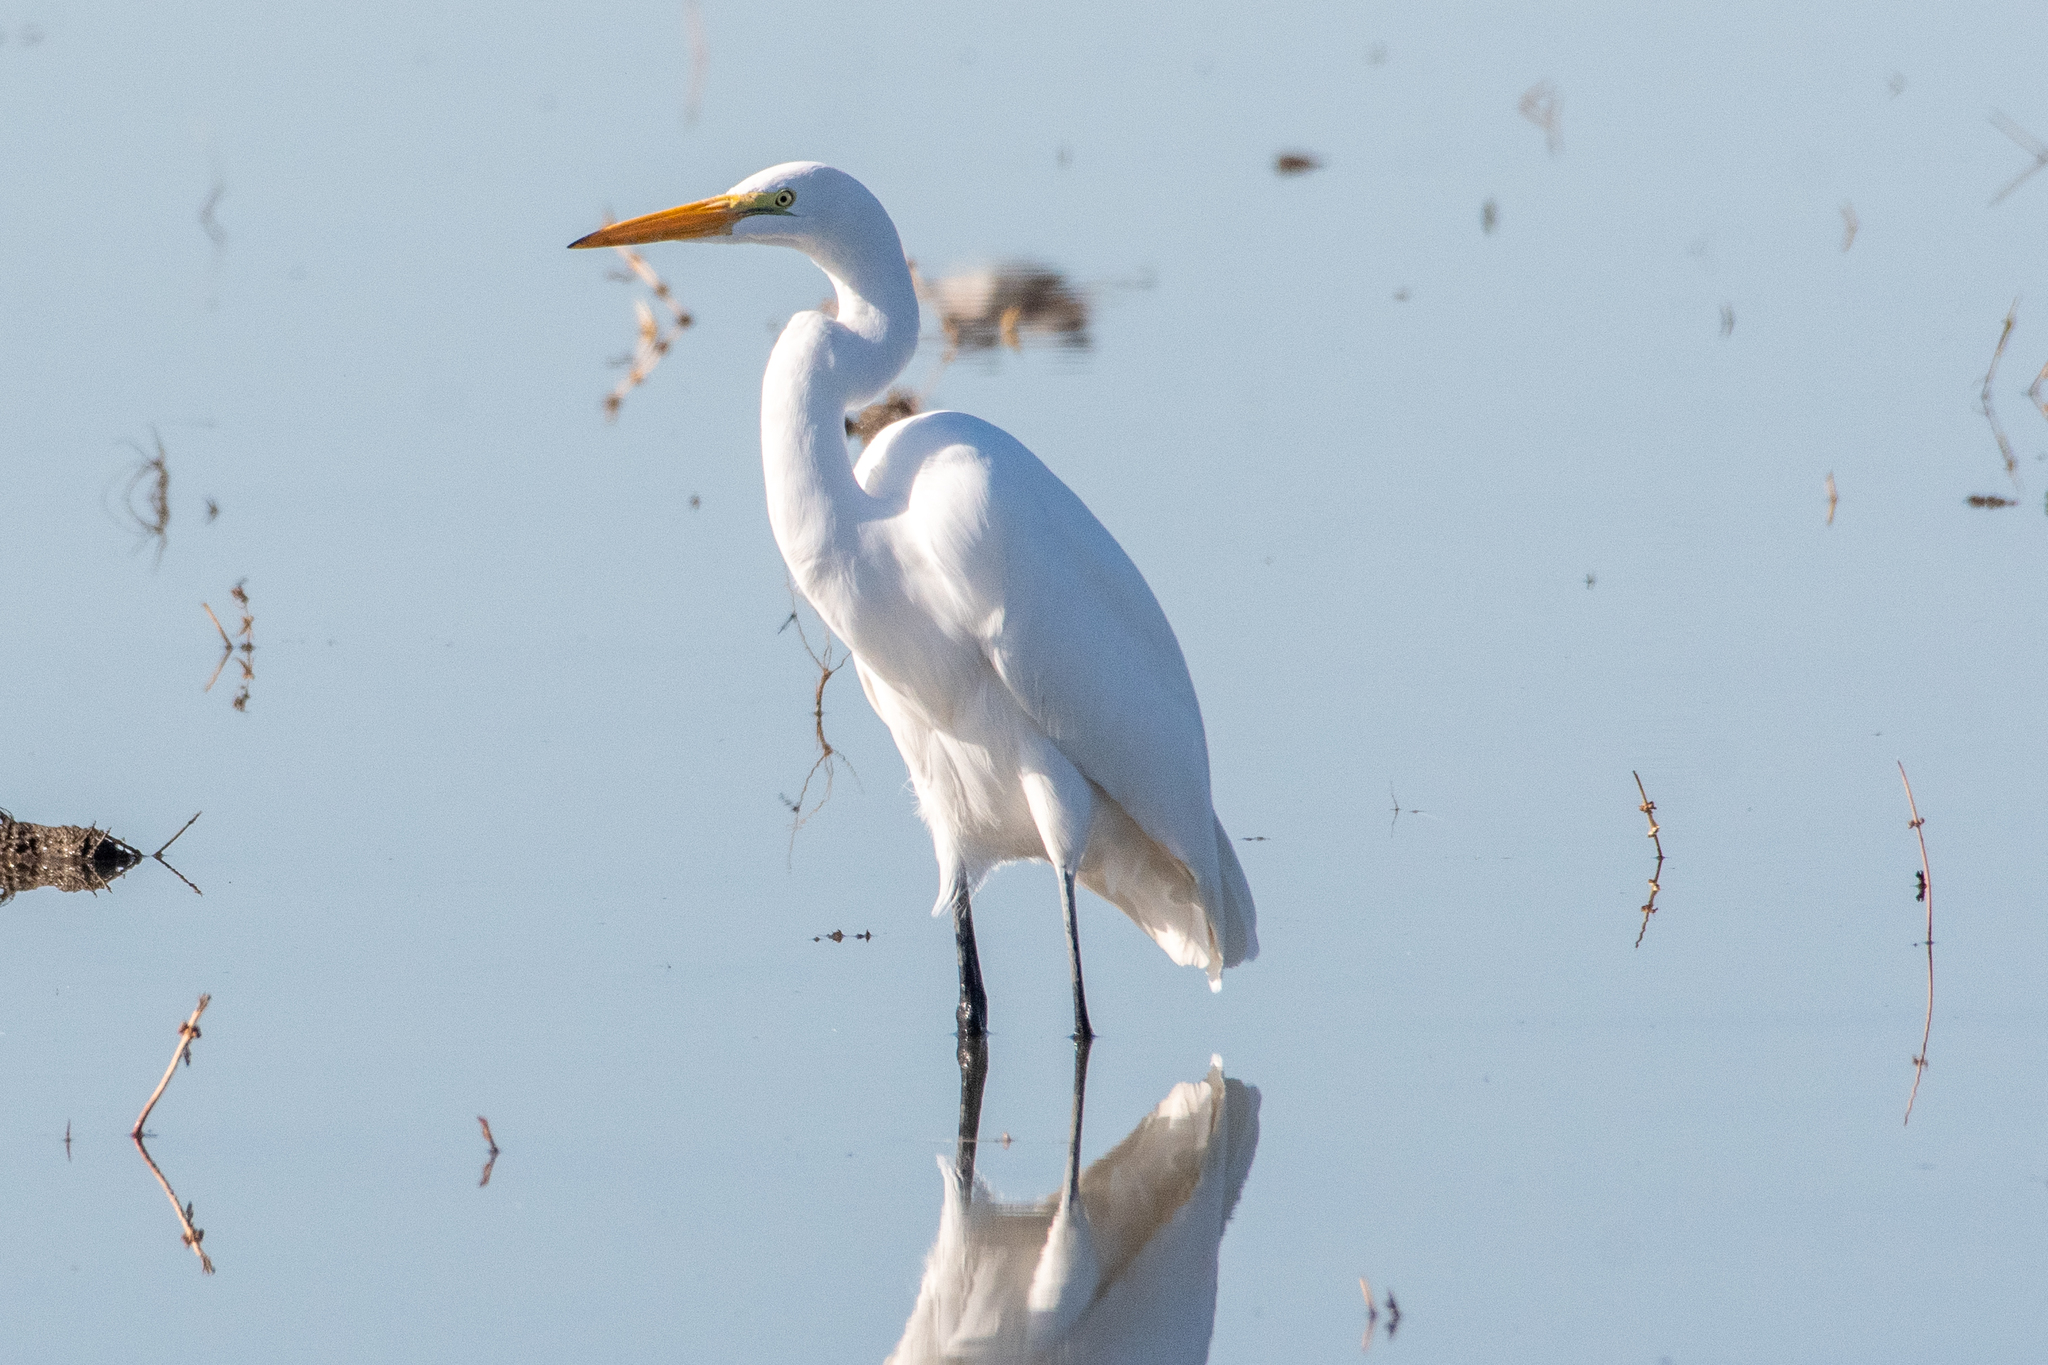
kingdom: Animalia
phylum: Chordata
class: Aves
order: Pelecaniformes
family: Ardeidae
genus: Ardea
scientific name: Ardea alba
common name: Great egret
